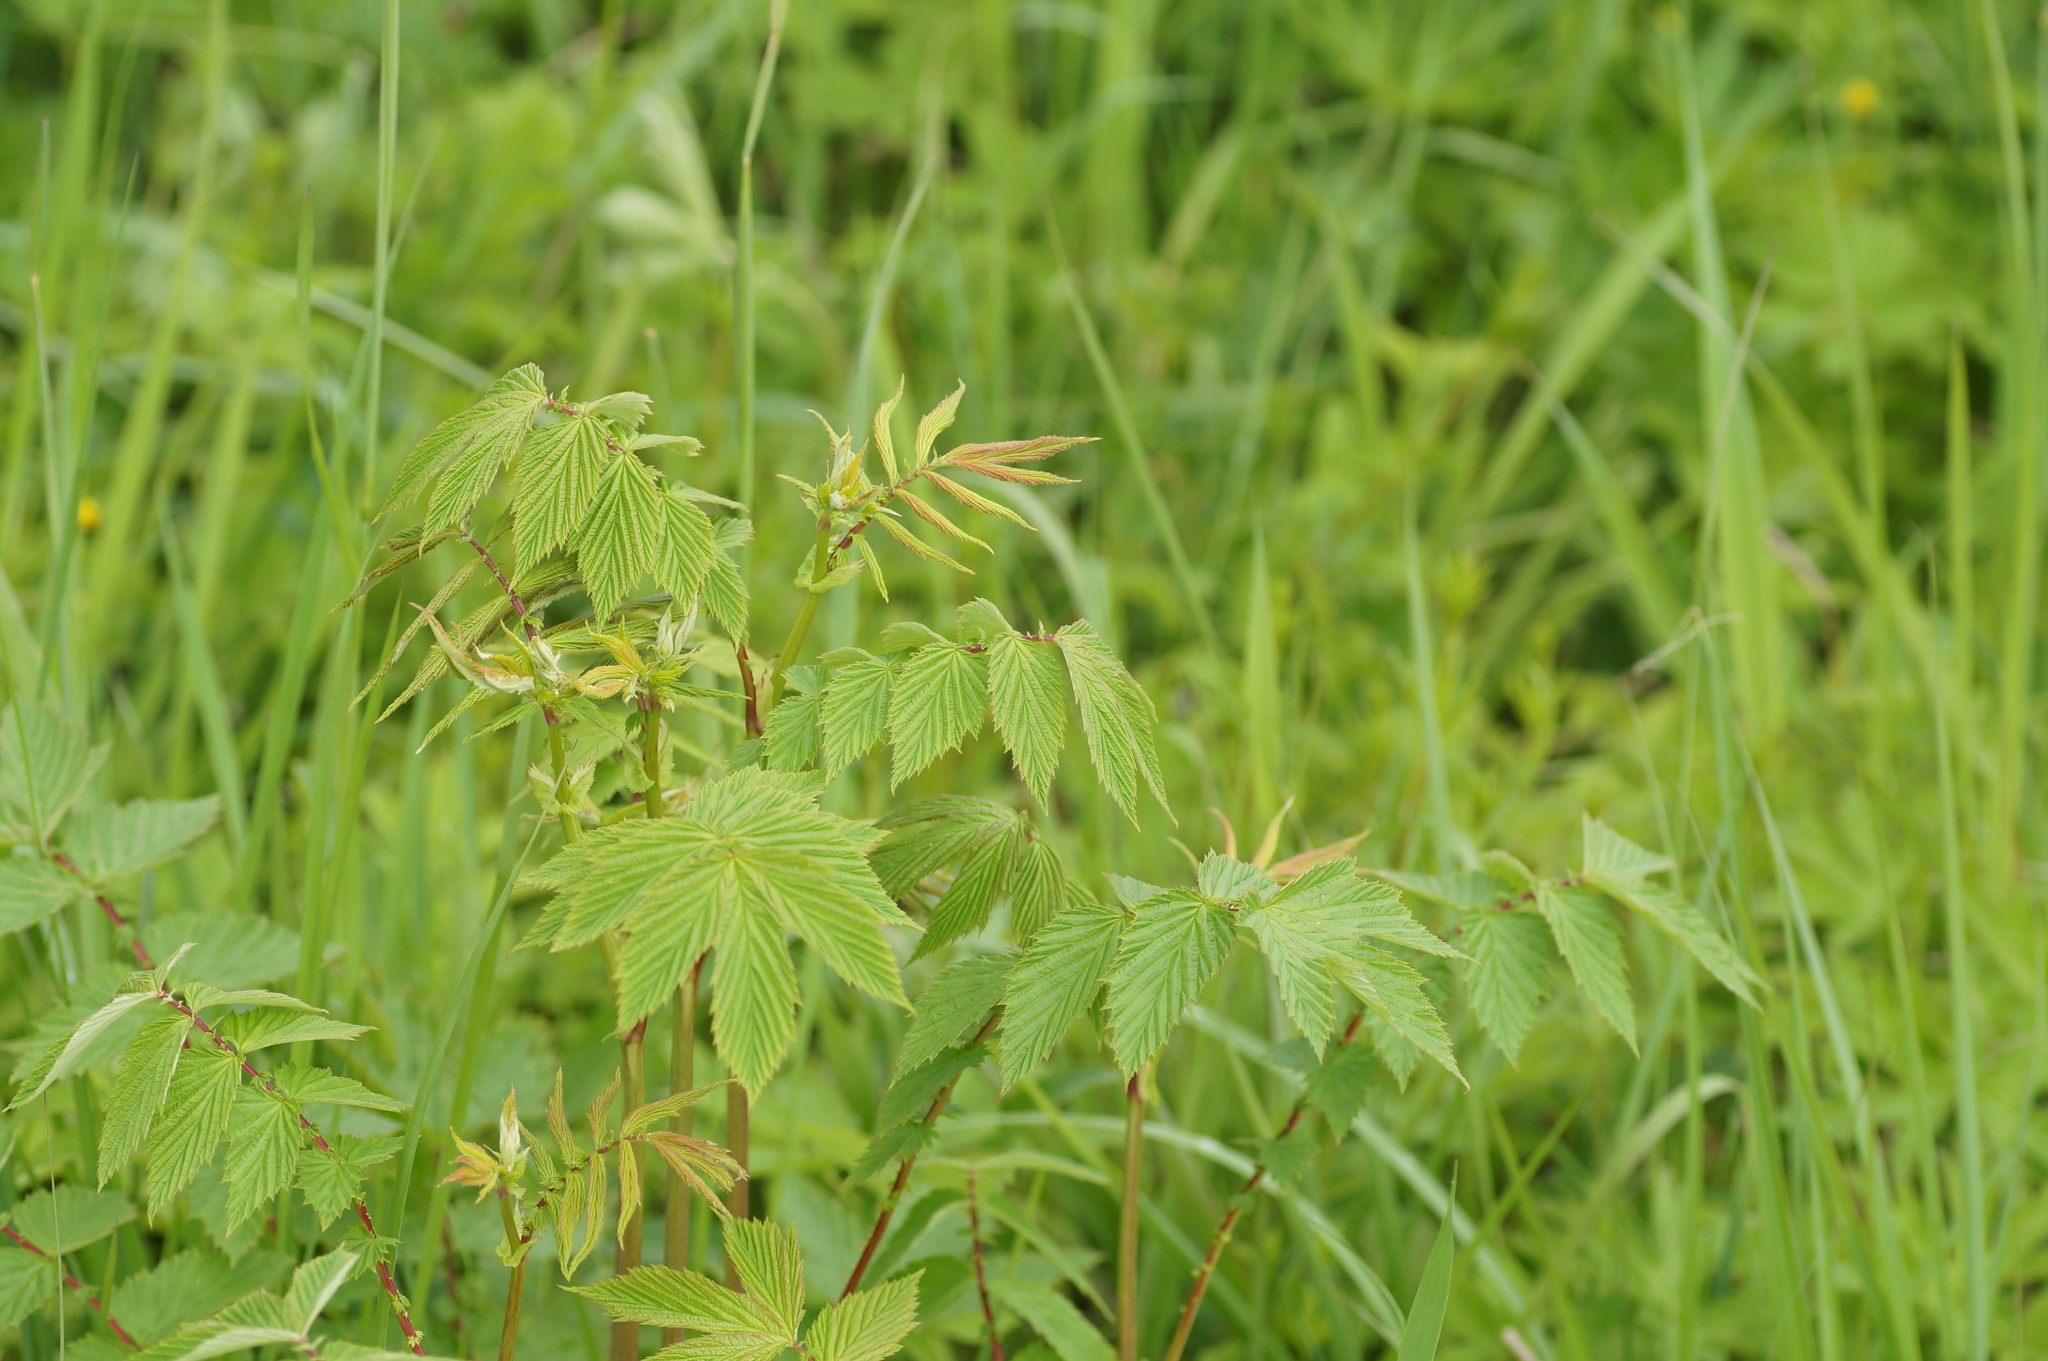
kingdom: Plantae
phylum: Tracheophyta
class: Magnoliopsida
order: Rosales
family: Rosaceae
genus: Filipendula
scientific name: Filipendula ulmaria
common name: Meadowsweet
